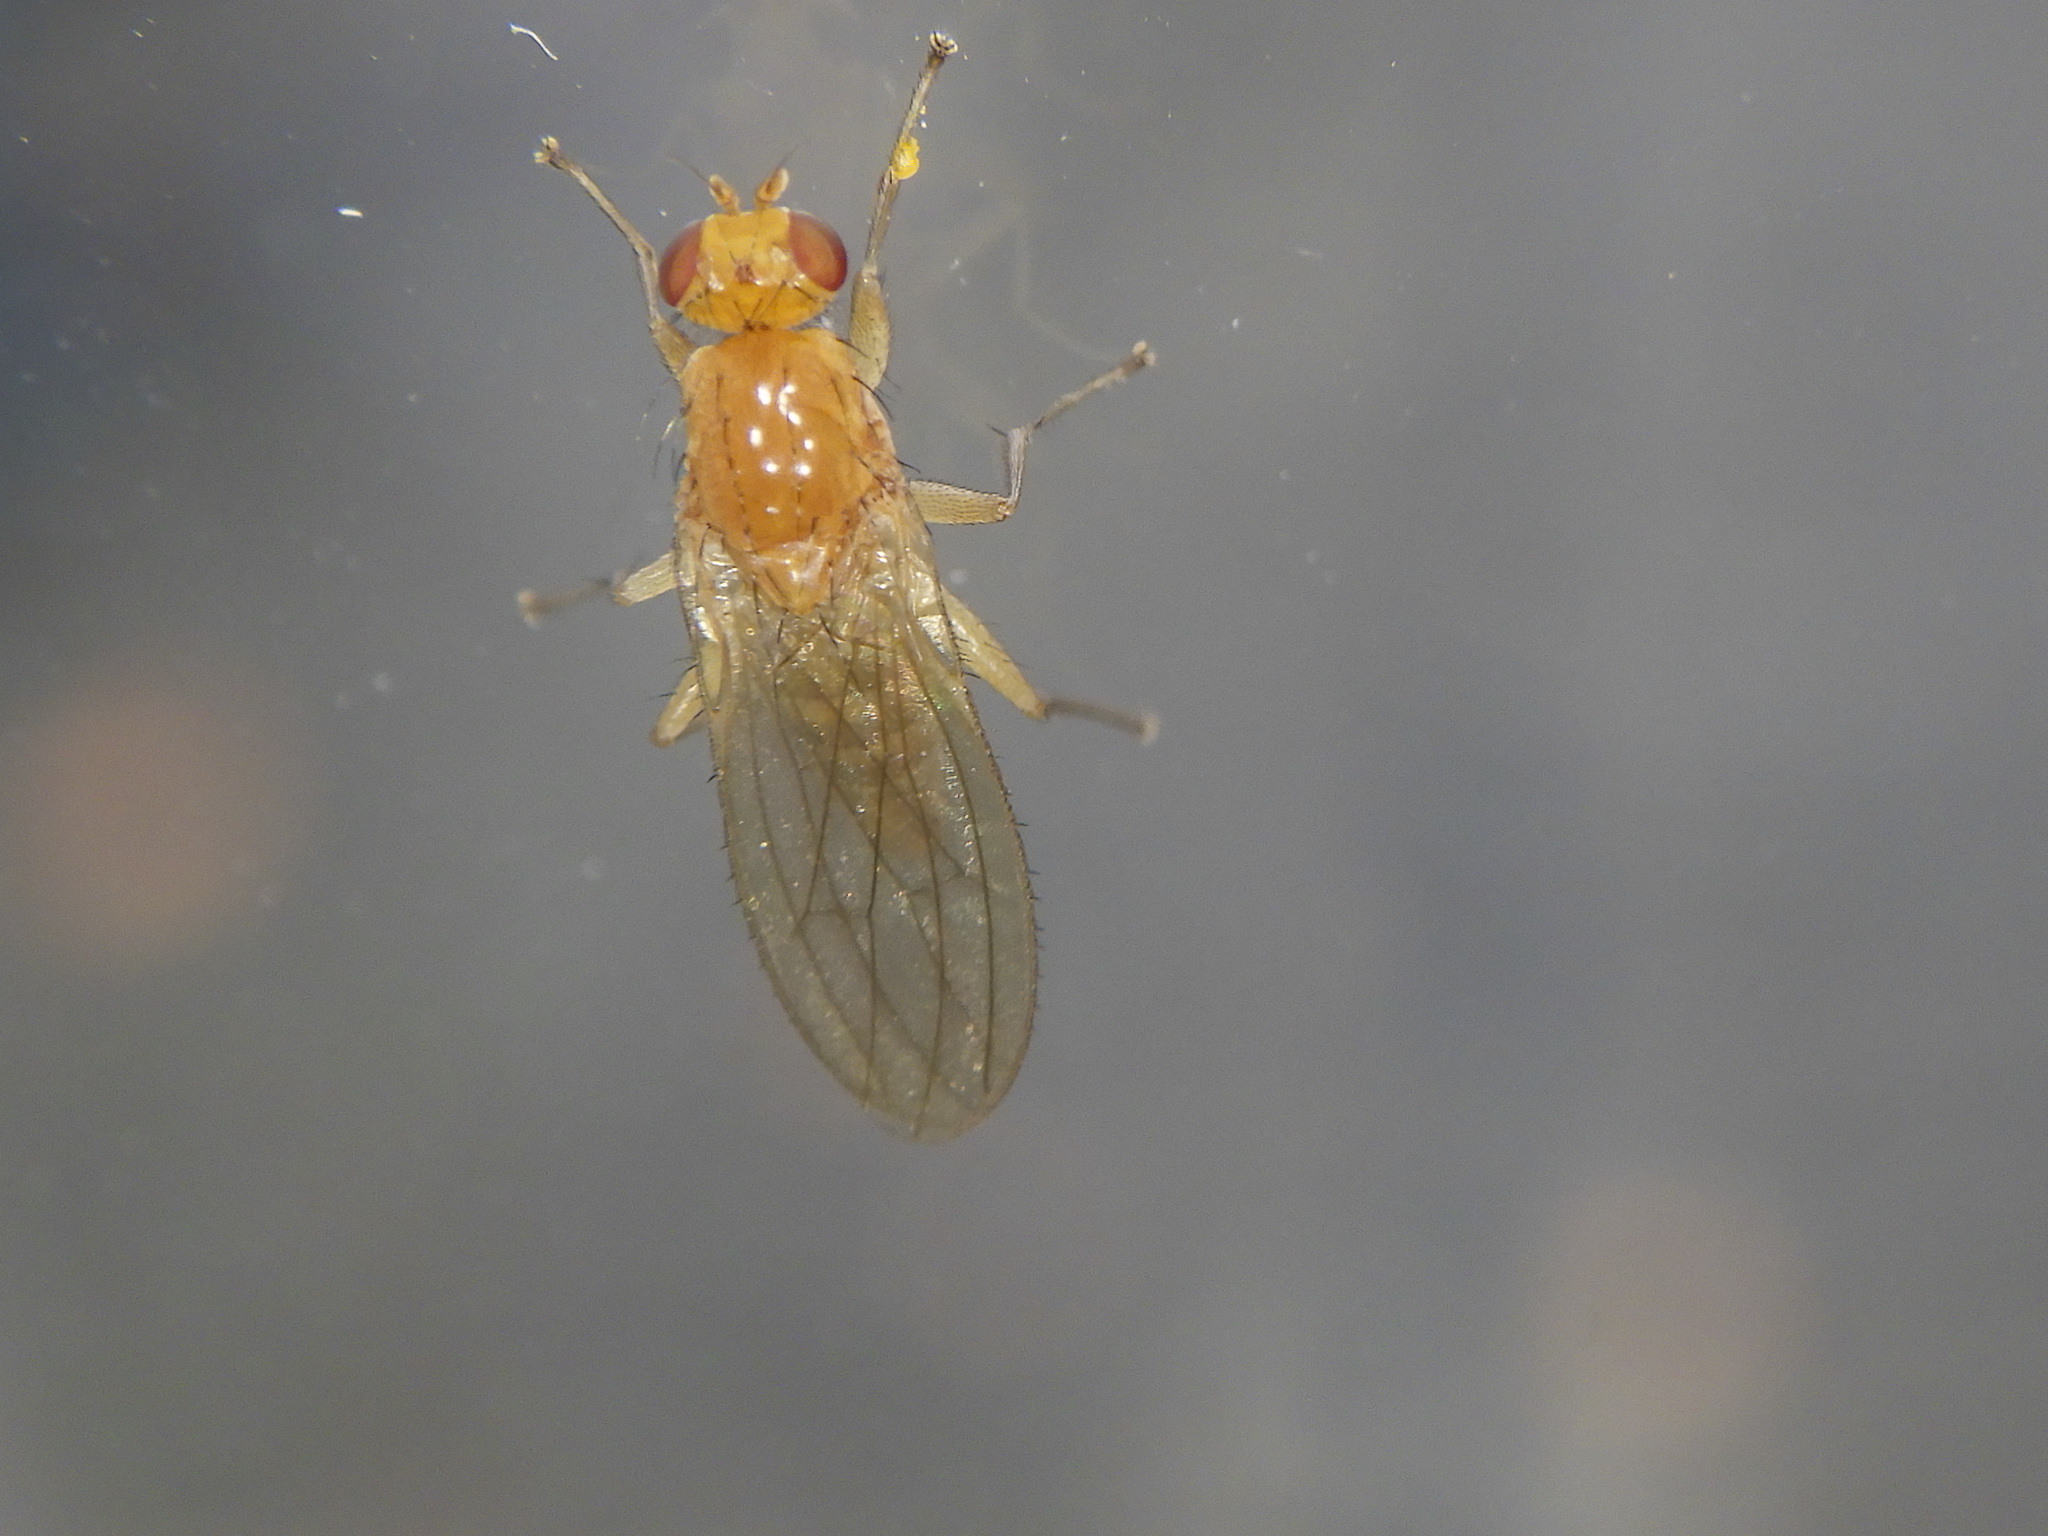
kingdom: Animalia
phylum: Arthropoda
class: Insecta
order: Diptera
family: Heleomyzidae
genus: Allophyla
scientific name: Allophyla laevis
